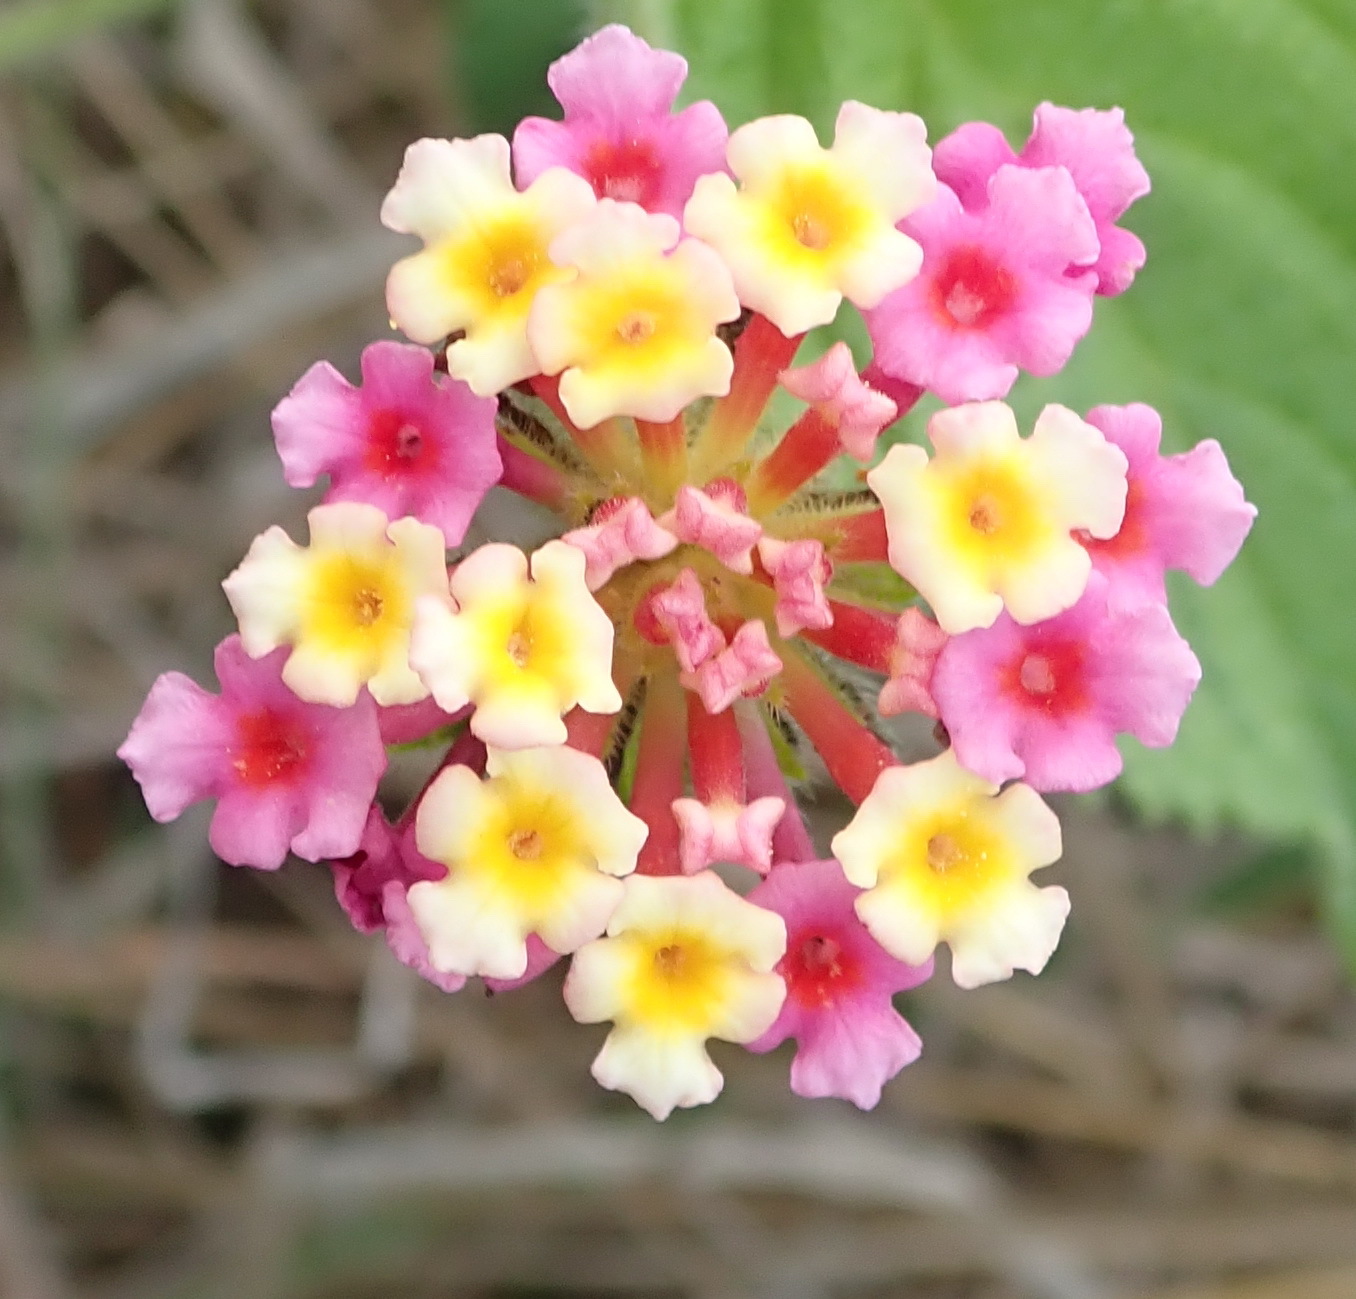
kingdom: Plantae
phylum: Tracheophyta
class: Magnoliopsida
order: Lamiales
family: Verbenaceae
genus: Lantana
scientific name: Lantana camara
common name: Lantana
